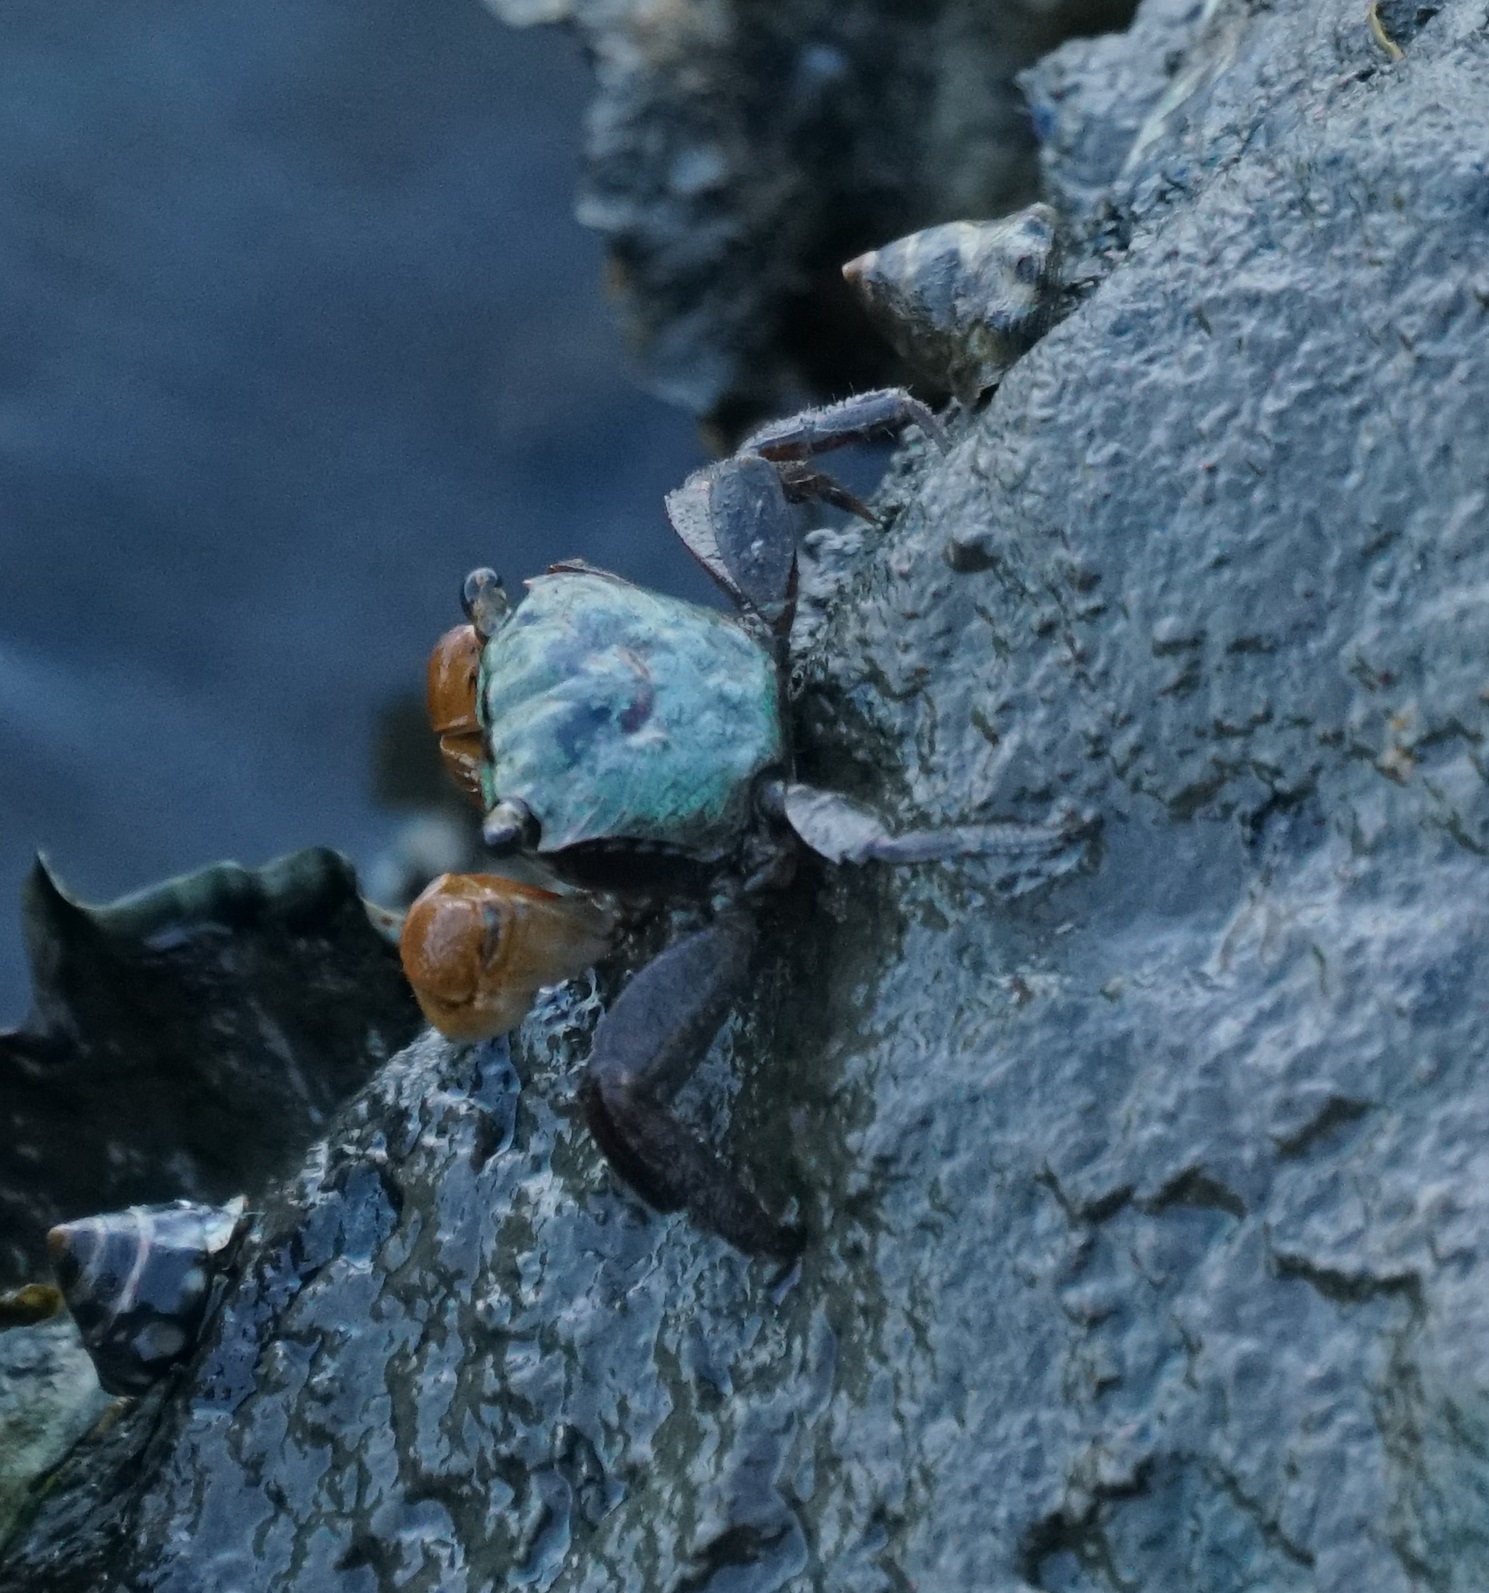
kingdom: Animalia
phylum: Arthropoda
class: Malacostraca
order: Decapoda
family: Sesarmidae
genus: Parasesarma
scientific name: Parasesarma erythodactylum
